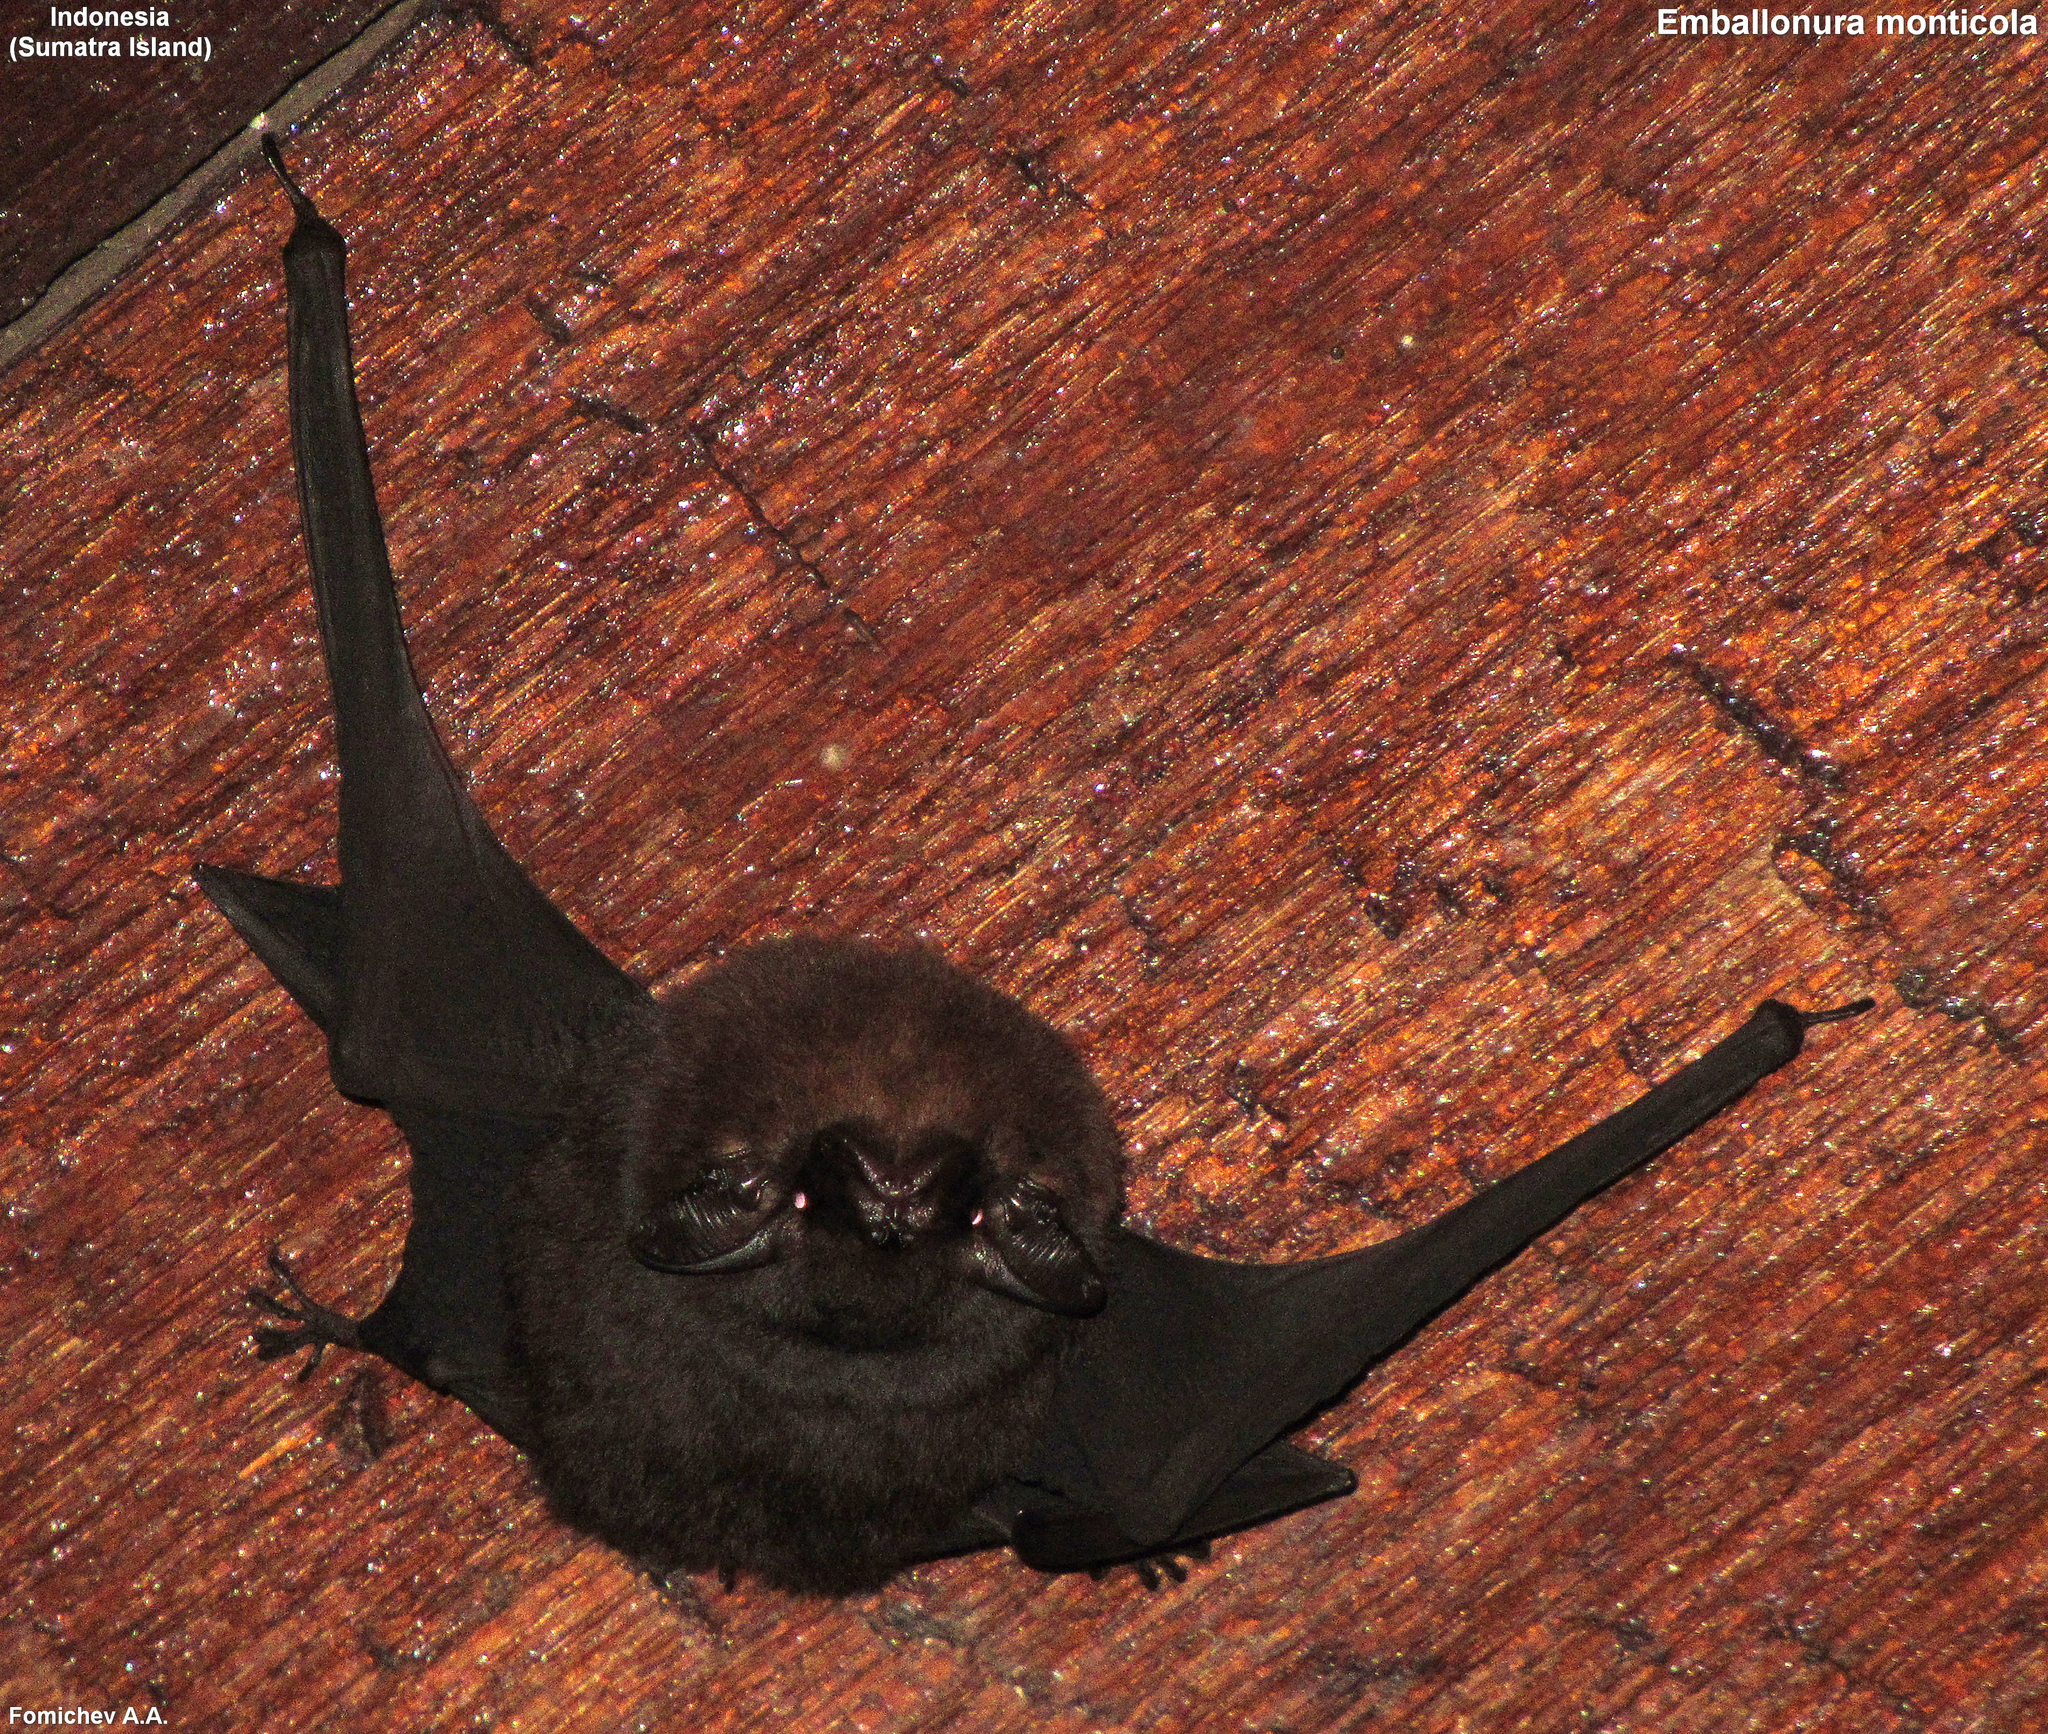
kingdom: Animalia
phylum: Chordata
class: Mammalia
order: Chiroptera
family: Emballonuridae
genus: Emballonura
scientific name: Emballonura monticola
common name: Lesser sheath-tailed bat
